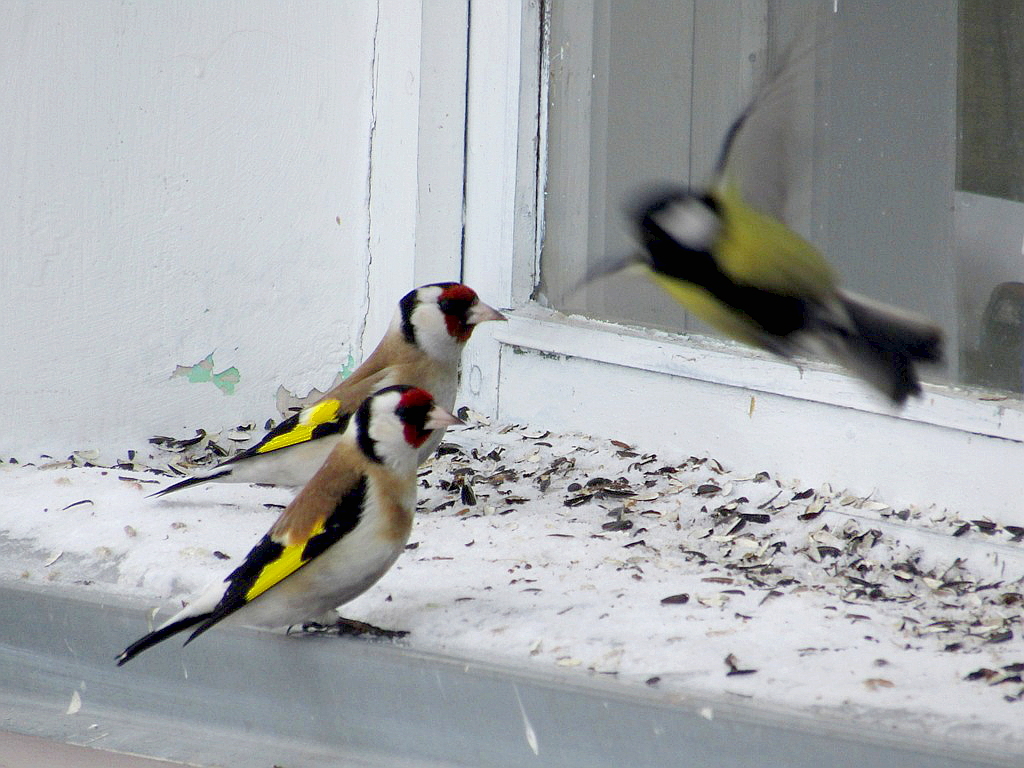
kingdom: Animalia
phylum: Chordata
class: Aves
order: Passeriformes
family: Fringillidae
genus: Carduelis
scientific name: Carduelis carduelis
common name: European goldfinch
